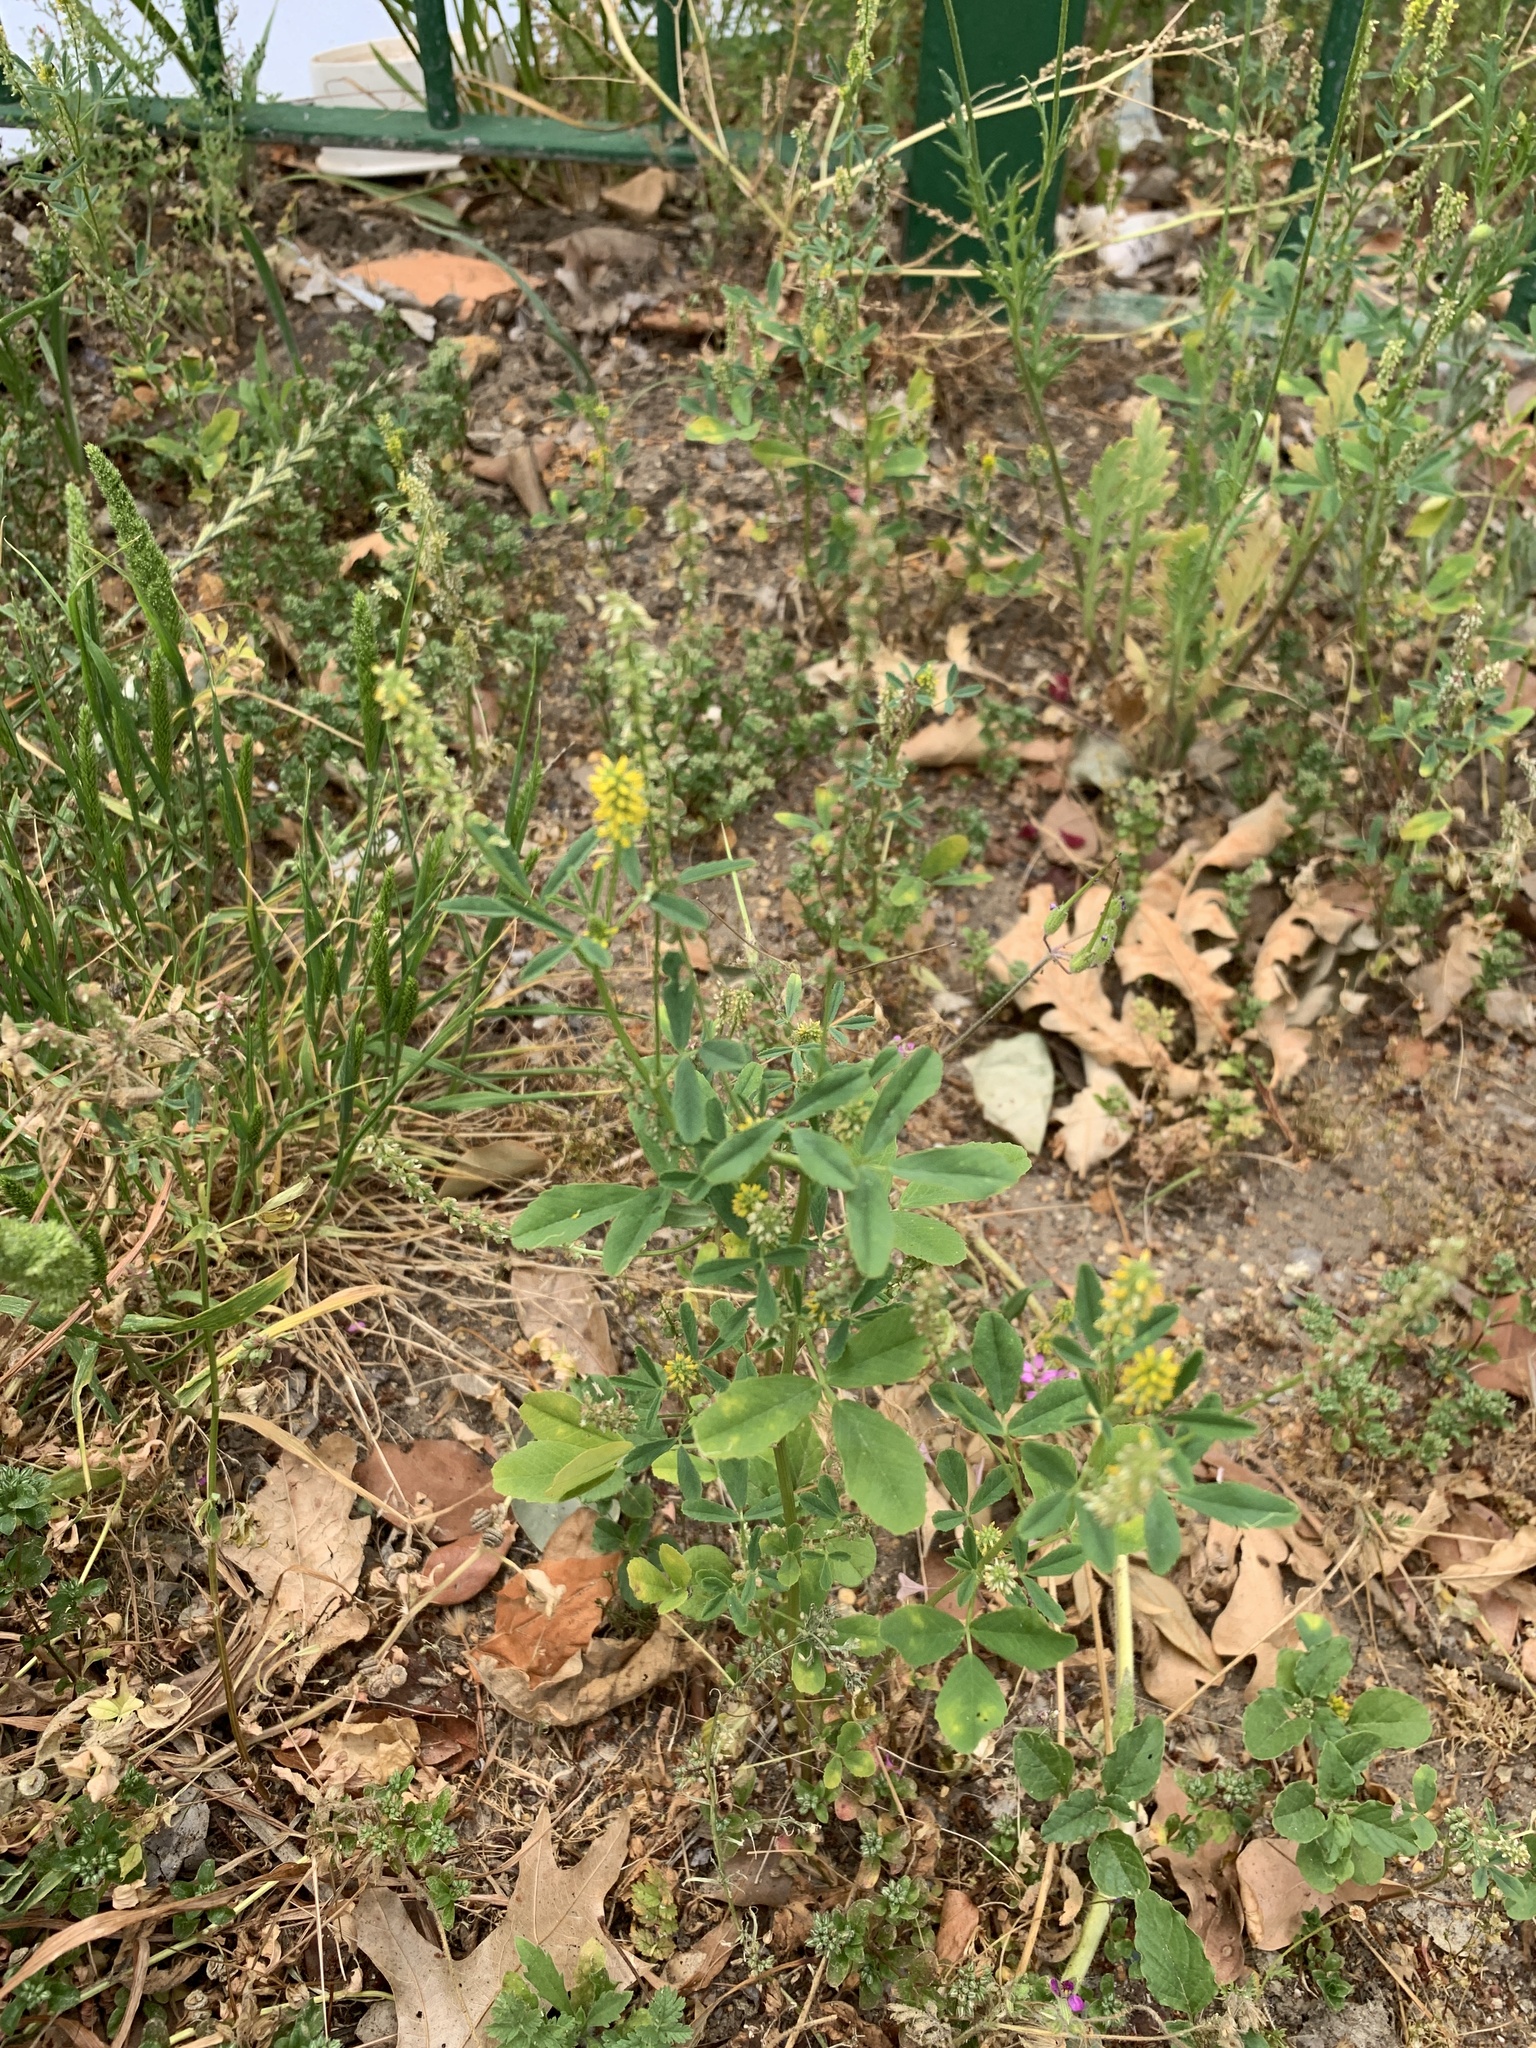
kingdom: Plantae
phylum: Tracheophyta
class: Liliopsida
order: Poales
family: Poaceae
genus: Hordeum
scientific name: Hordeum murinum
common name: Wall barley
